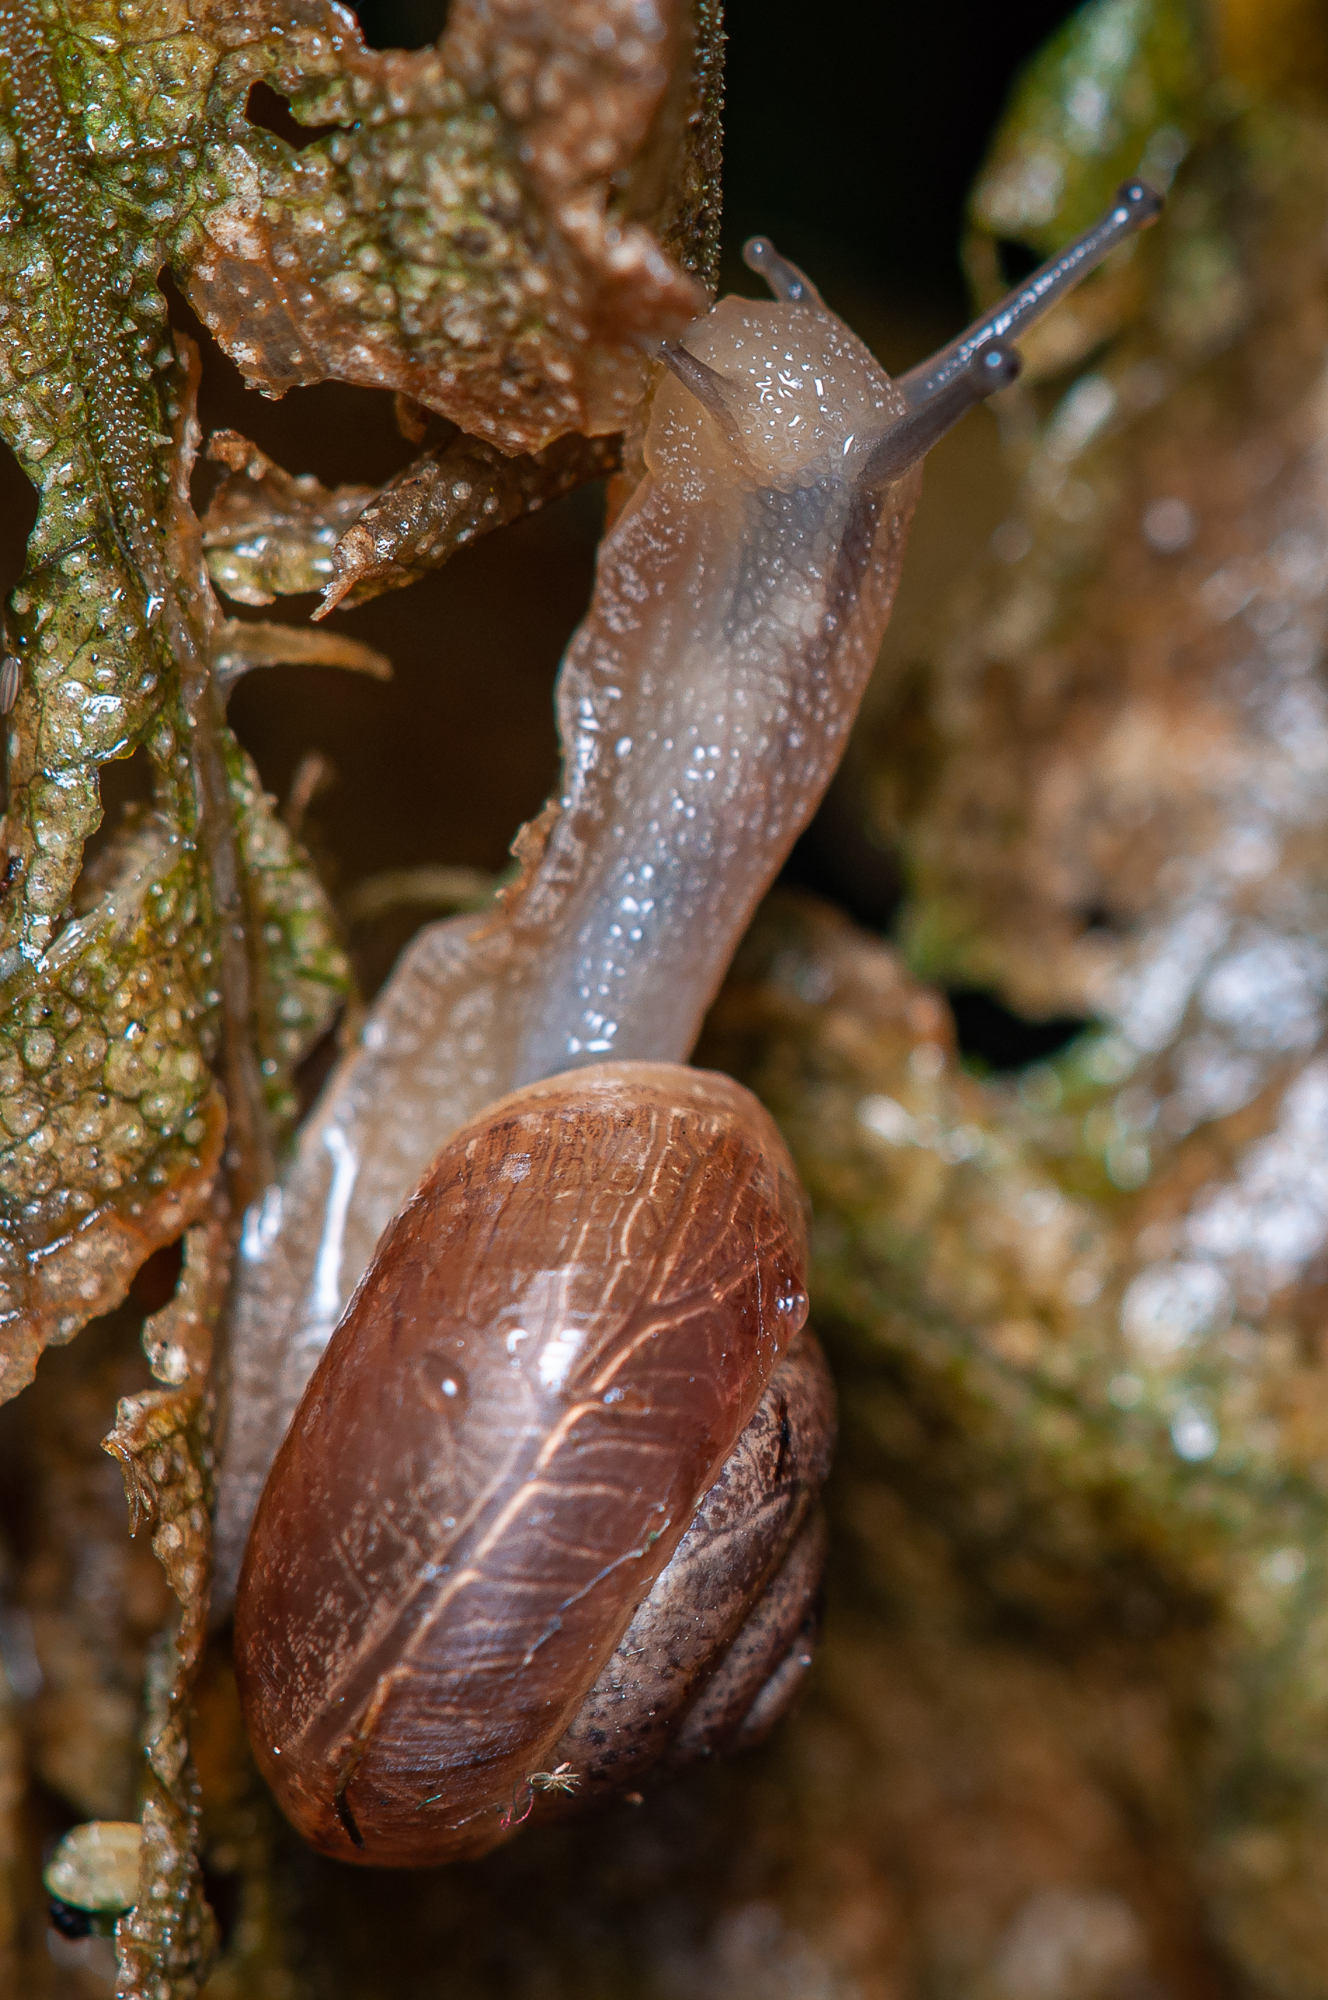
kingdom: Animalia
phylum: Mollusca
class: Gastropoda
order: Stylommatophora
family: Camaenidae
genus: Bradybaena
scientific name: Bradybaena similaris
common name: Asian trampsnail
